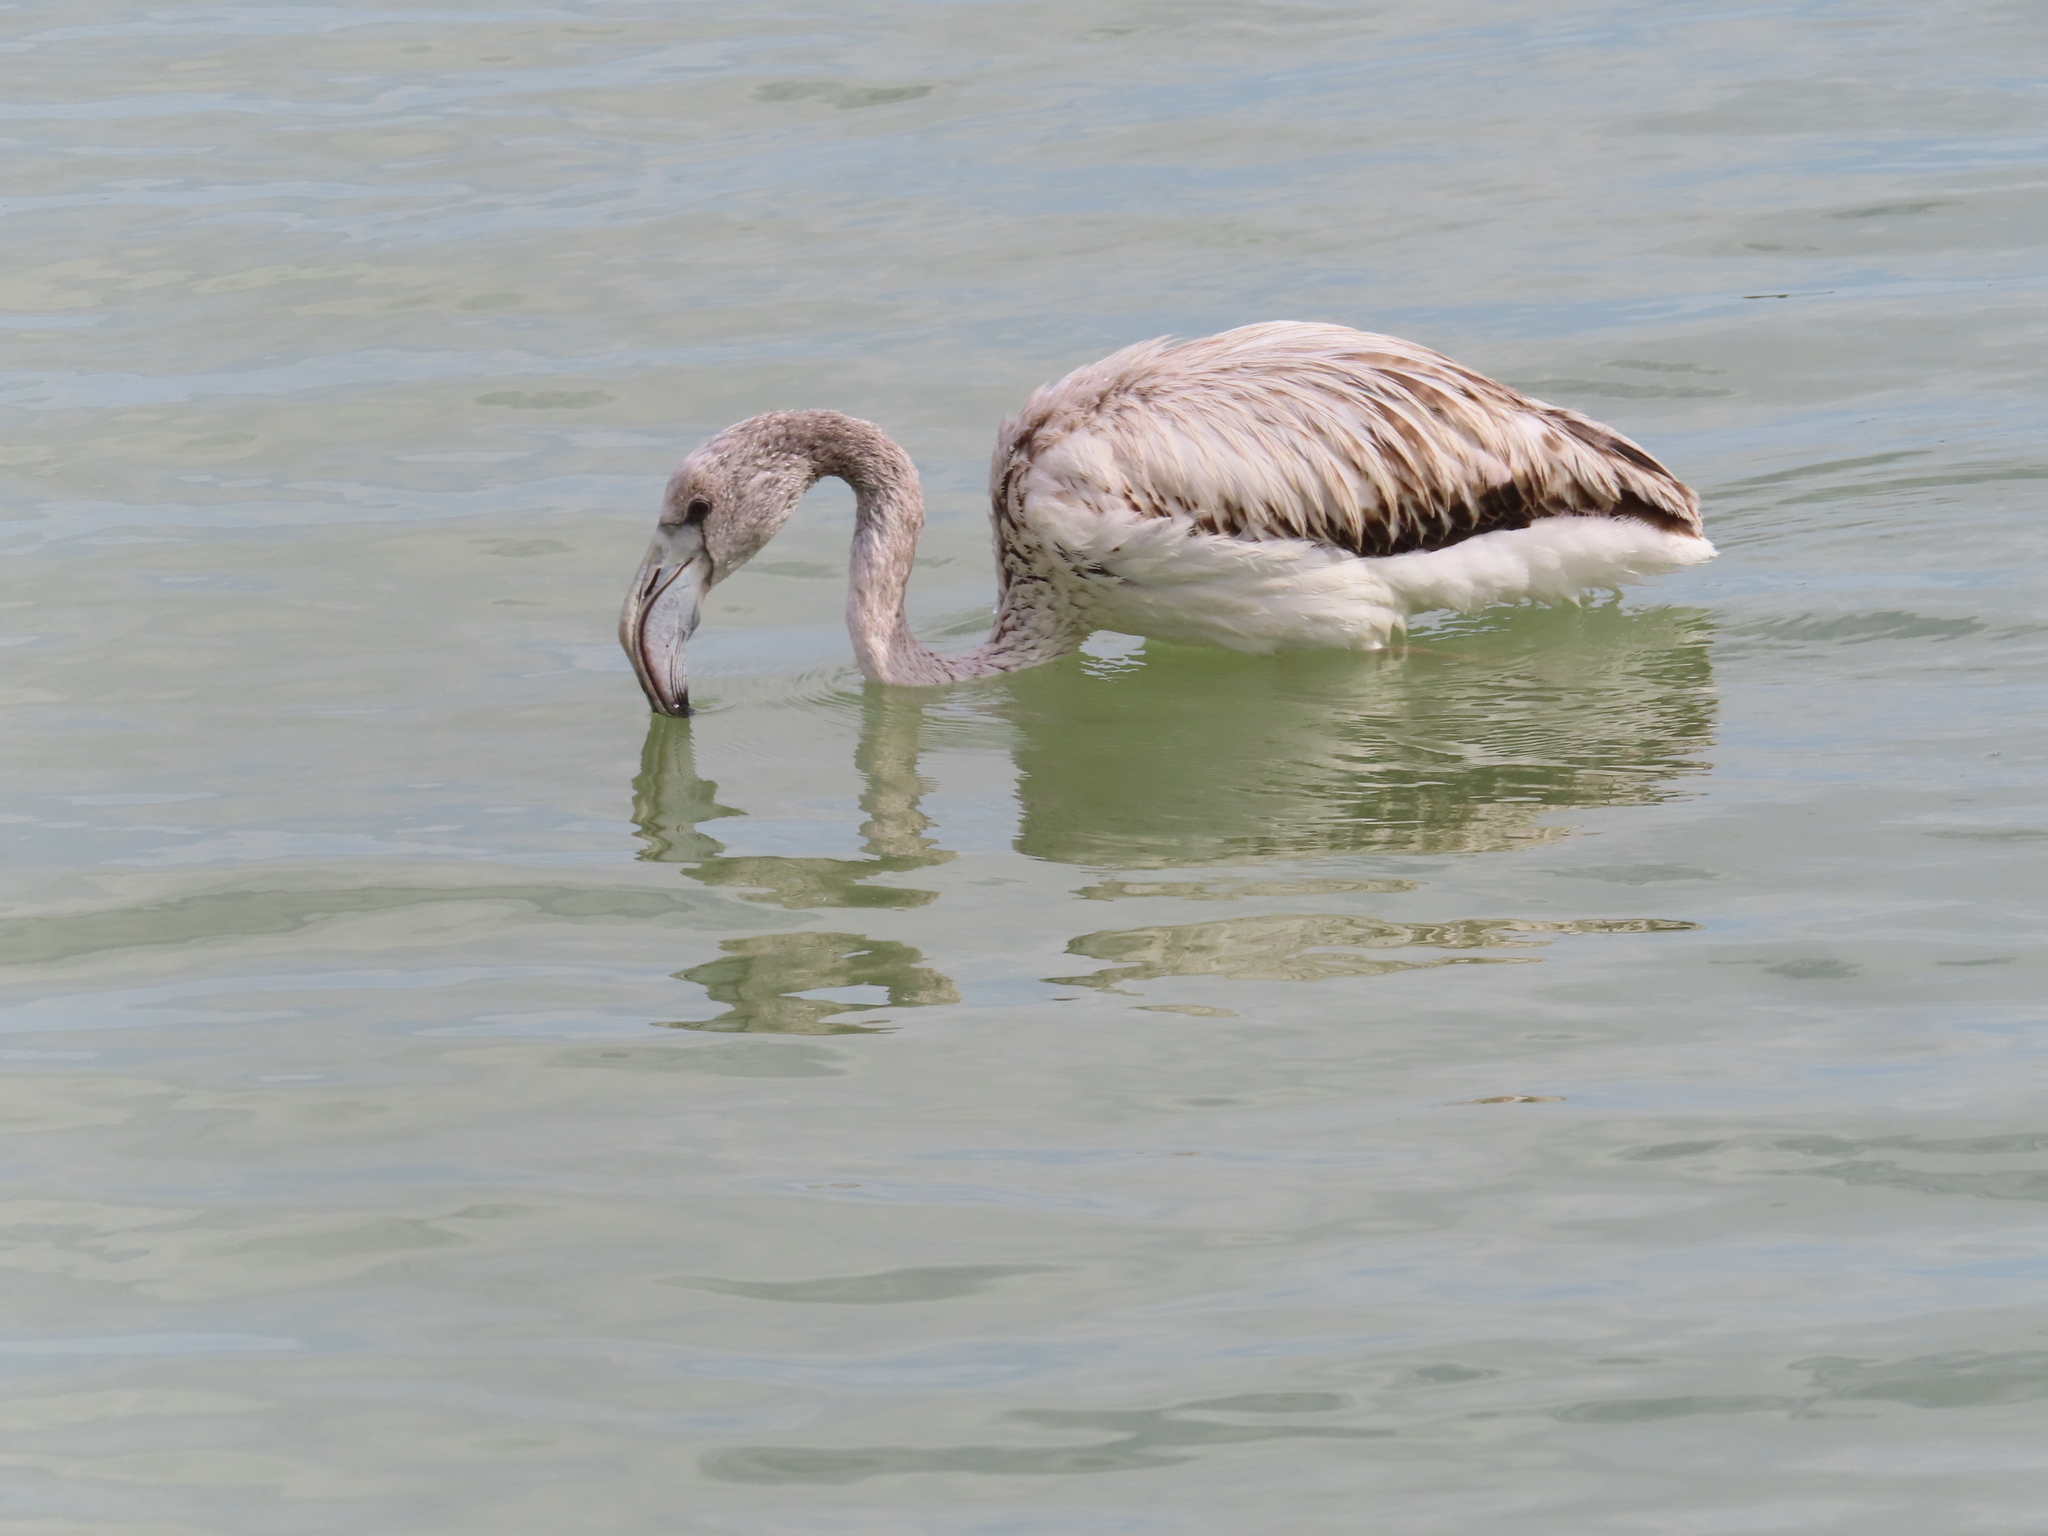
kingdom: Animalia
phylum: Chordata
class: Aves
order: Phoenicopteriformes
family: Phoenicopteridae
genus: Phoenicopterus
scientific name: Phoenicopterus roseus
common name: Greater flamingo
